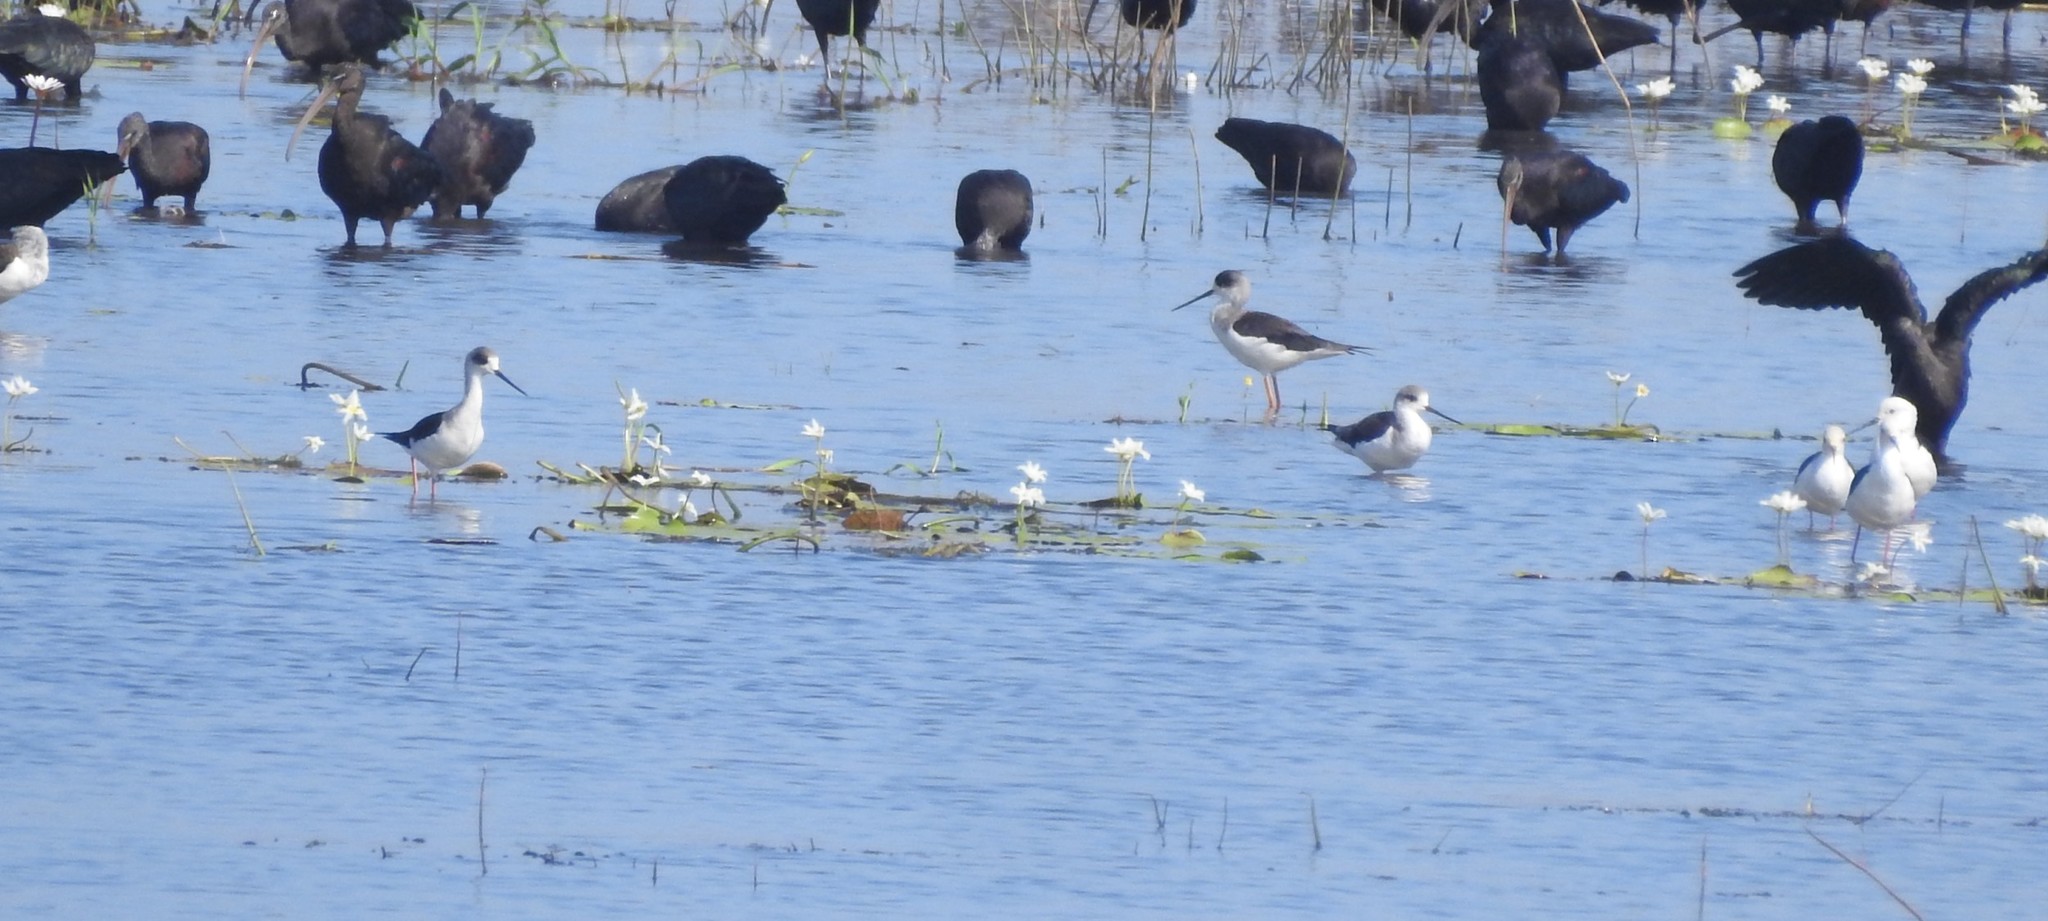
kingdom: Animalia
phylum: Chordata
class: Aves
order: Charadriiformes
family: Recurvirostridae
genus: Himantopus
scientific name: Himantopus himantopus
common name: Black-winged stilt
